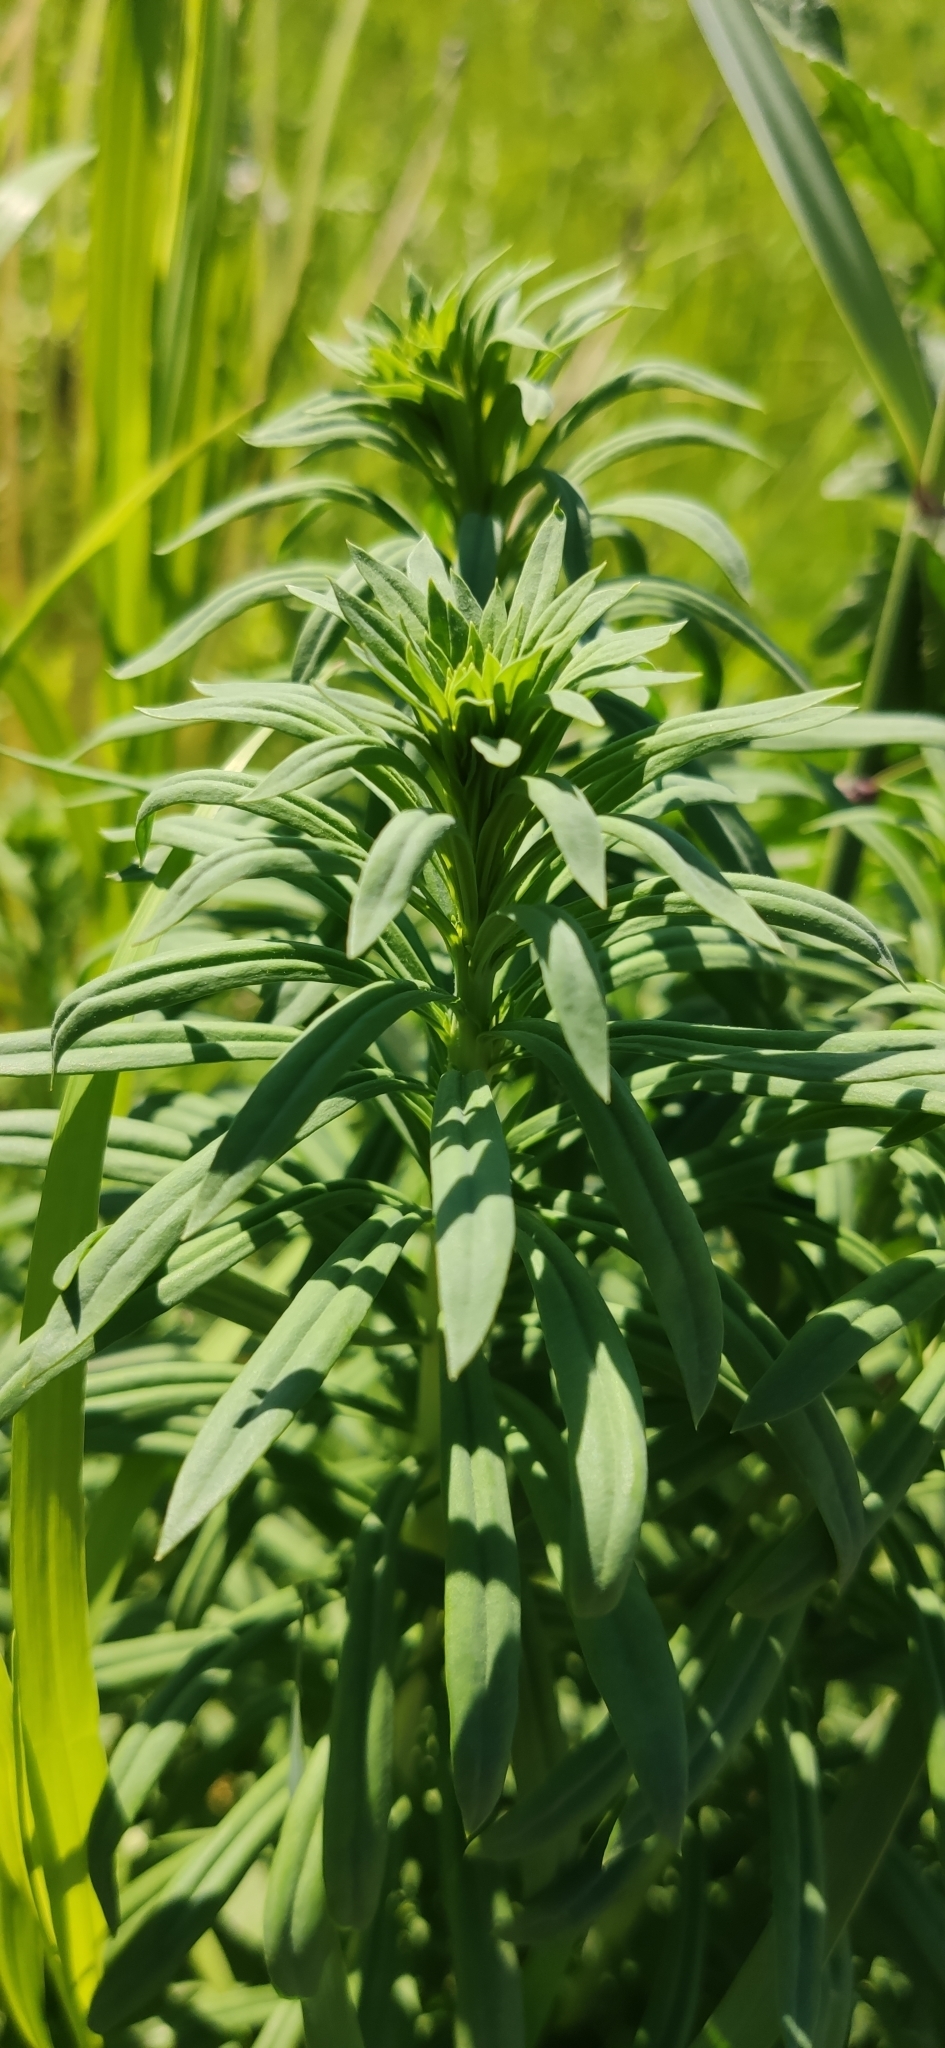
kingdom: Plantae
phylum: Tracheophyta
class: Magnoliopsida
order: Myrtales
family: Onagraceae
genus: Chamaenerion
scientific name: Chamaenerion angustifolium
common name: Fireweed
